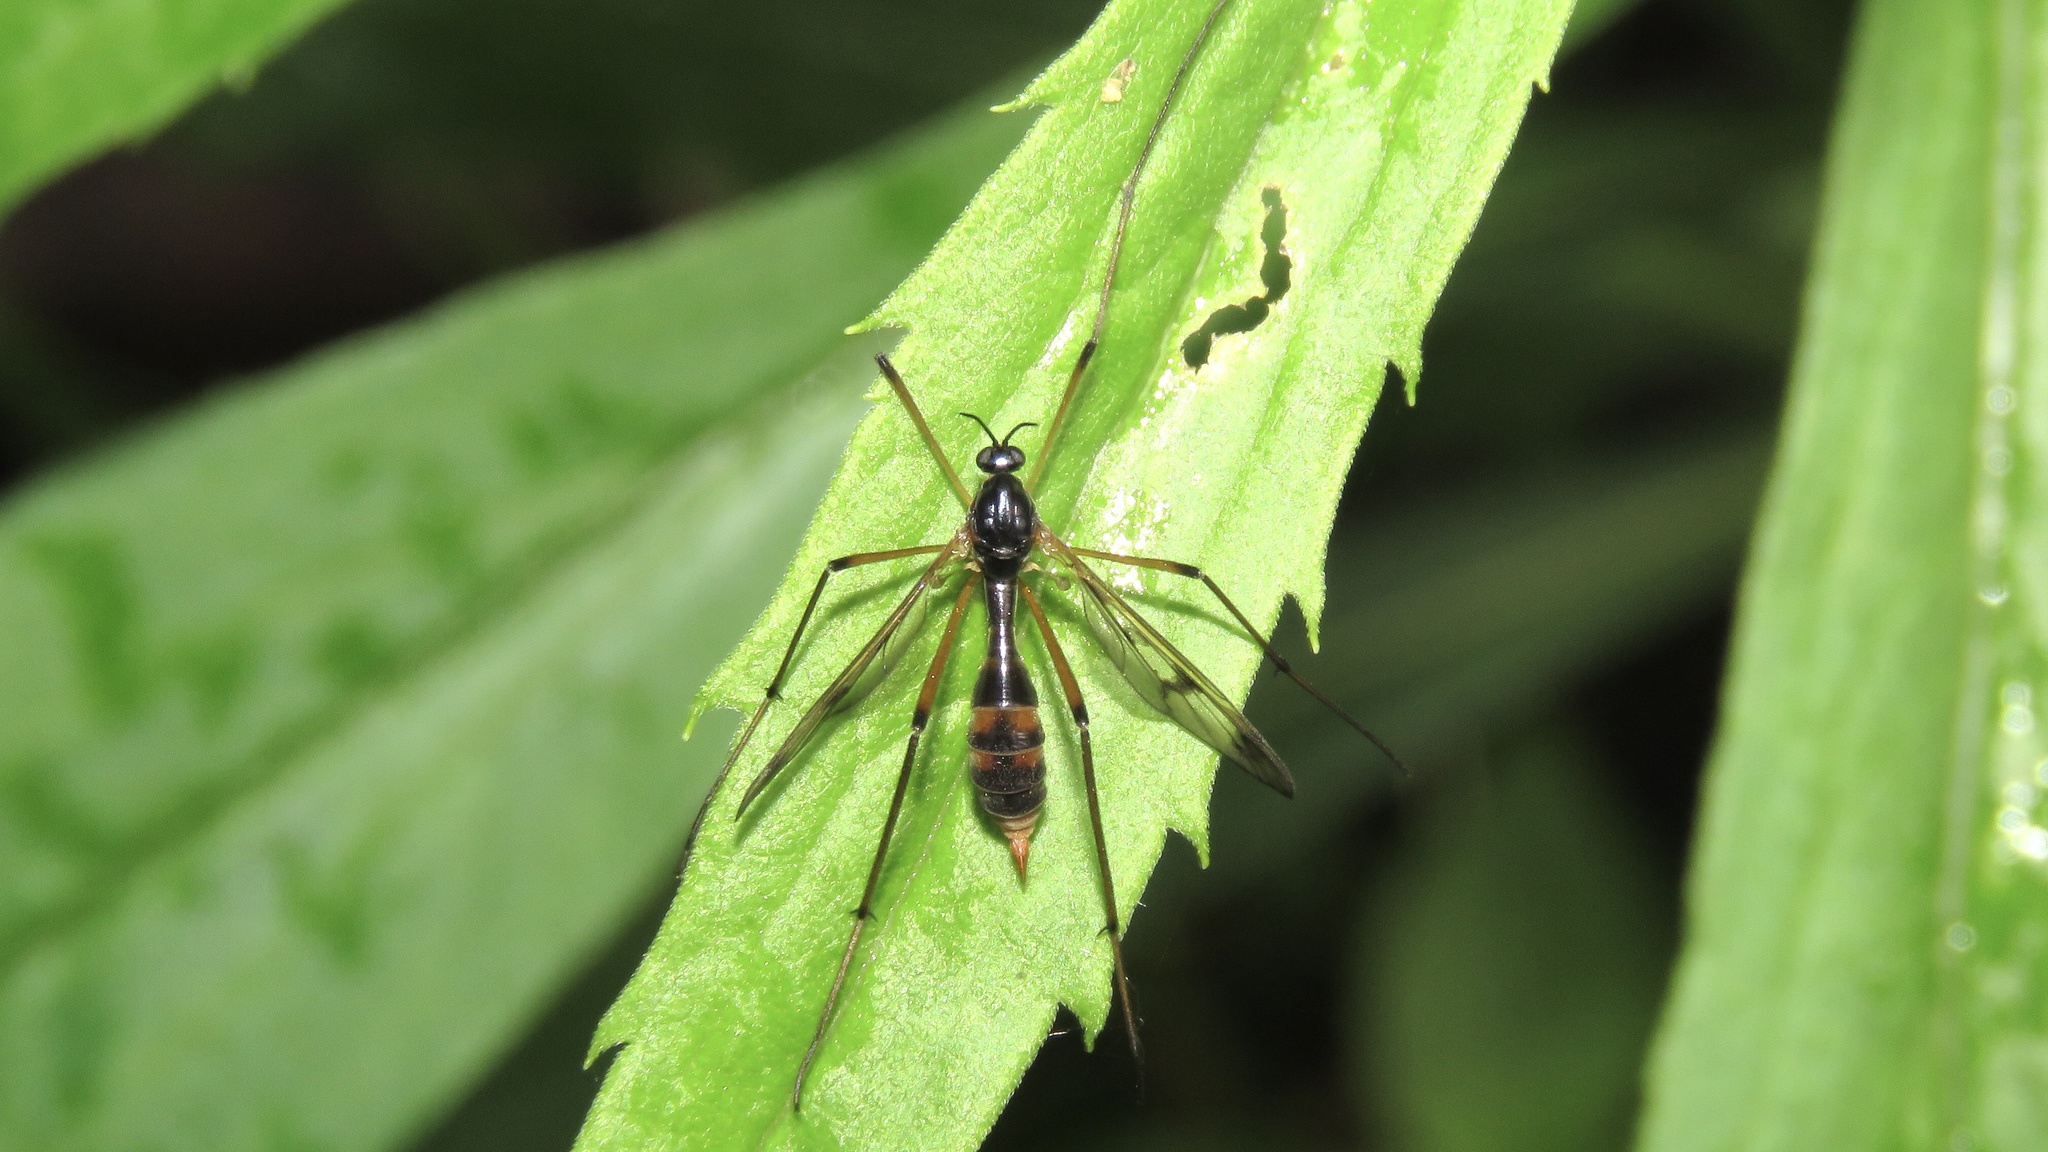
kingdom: Animalia
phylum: Arthropoda
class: Insecta
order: Diptera
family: Ptychopteridae
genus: Ptychoptera
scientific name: Ptychoptera quadrifasciata
